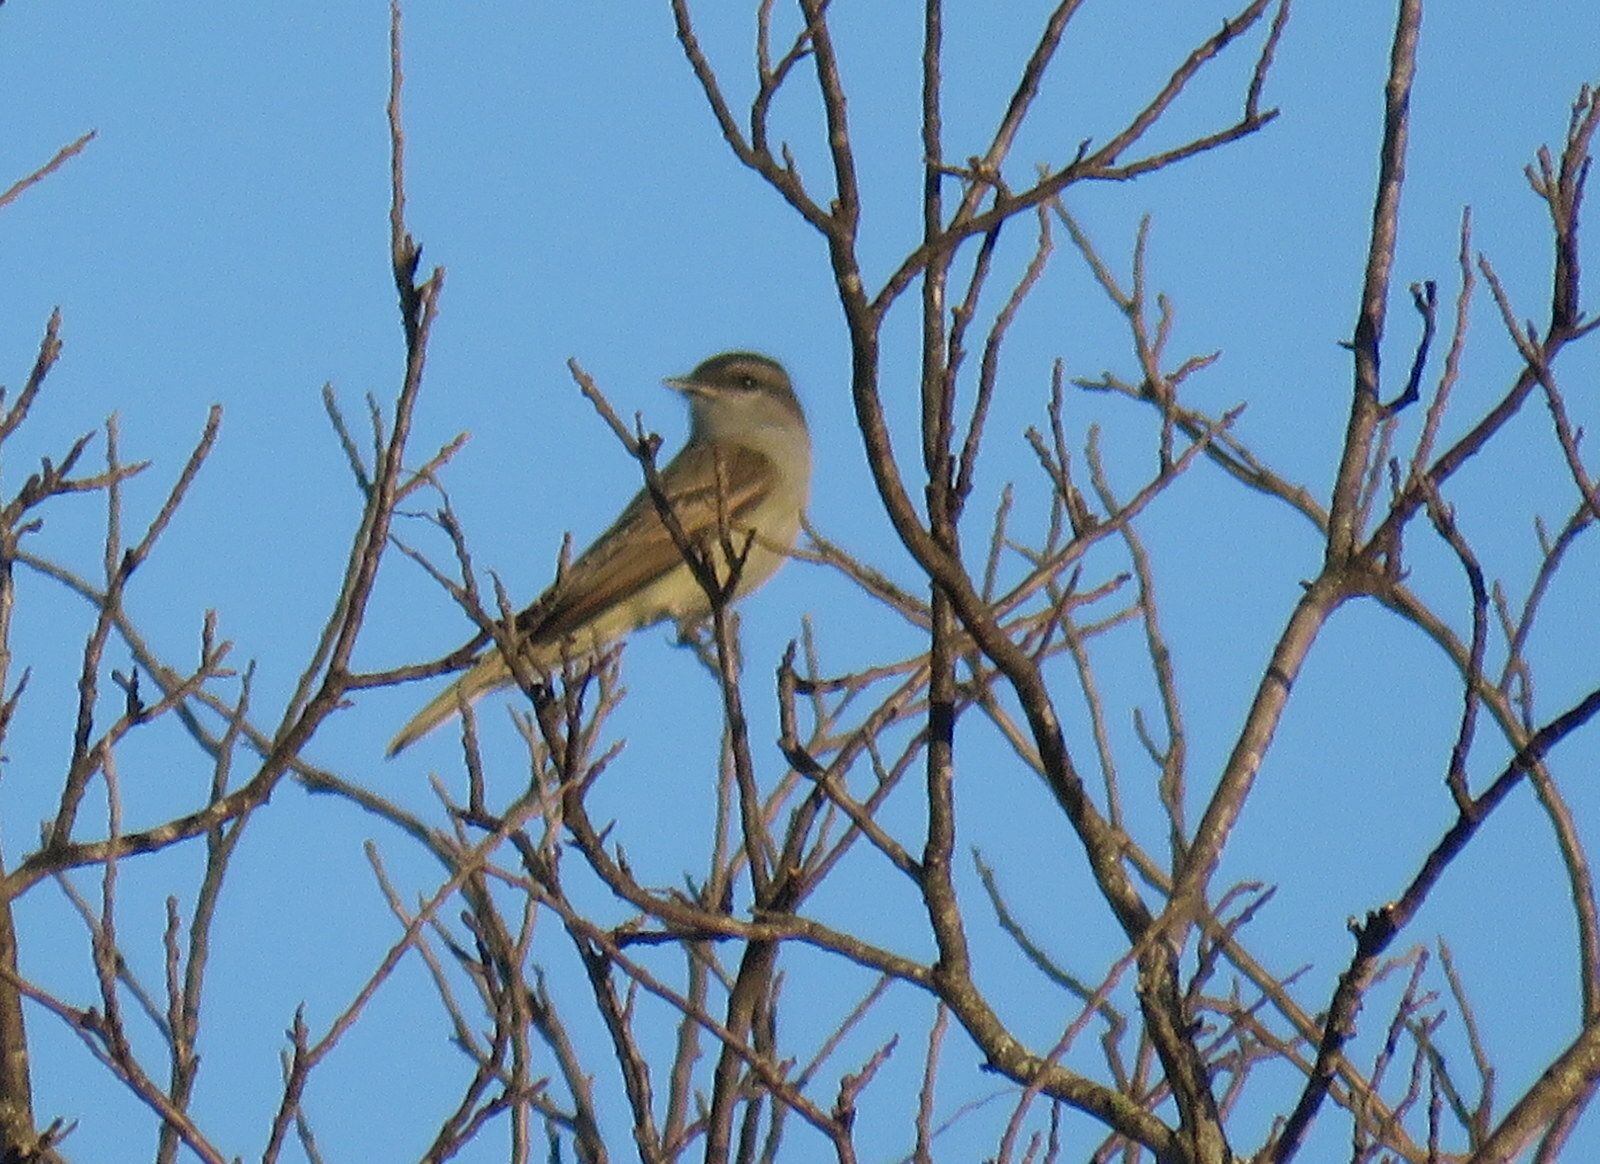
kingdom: Animalia
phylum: Chordata
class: Aves
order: Passeriformes
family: Tyrannidae
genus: Empidonomus
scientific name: Empidonomus aurantioatrocristatus
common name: Crowned slaty flycatcher
